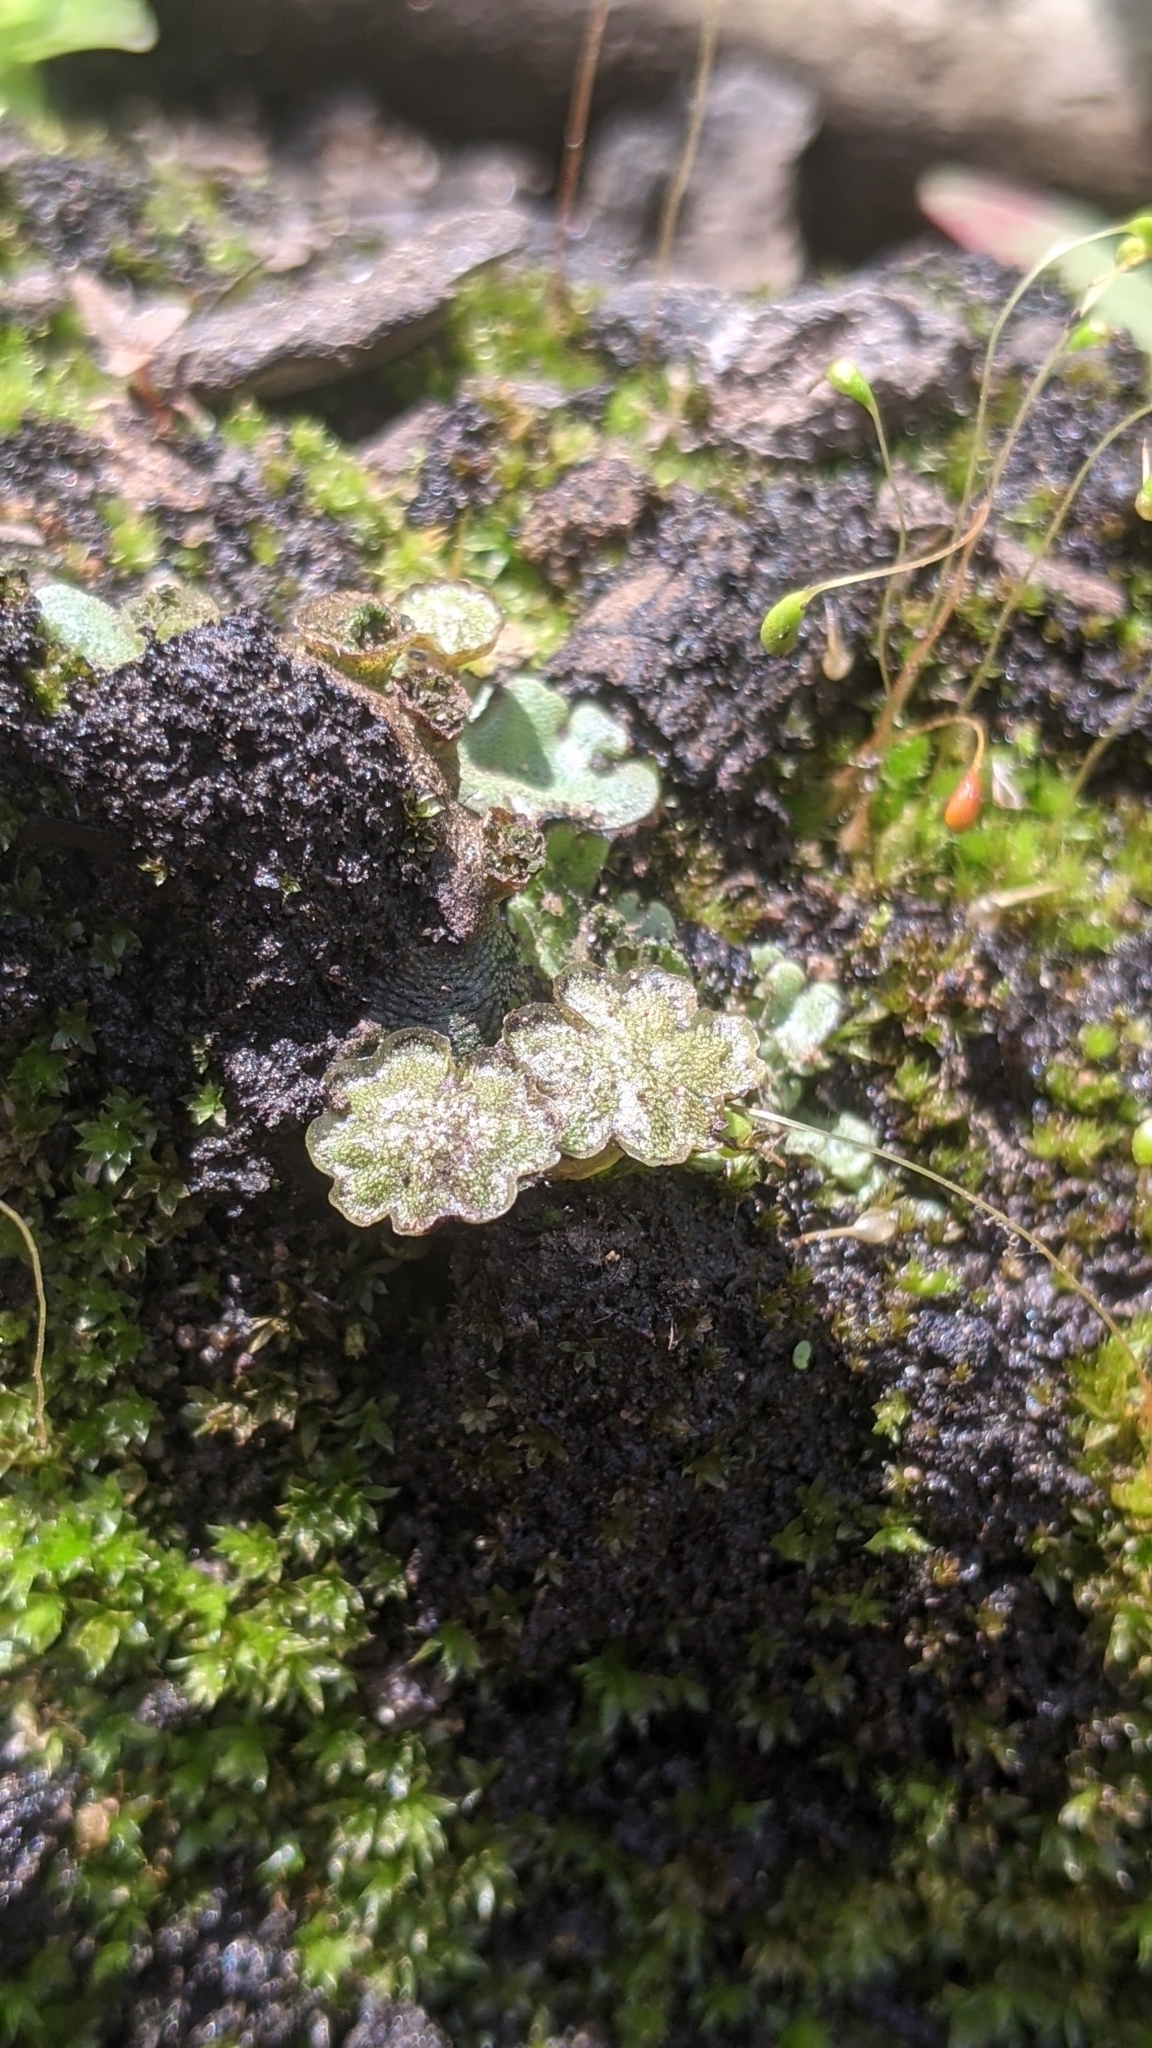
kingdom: Plantae
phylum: Marchantiophyta
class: Marchantiopsida
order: Marchantiales
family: Marchantiaceae
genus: Marchantia
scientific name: Marchantia polymorpha
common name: Common liverwort
